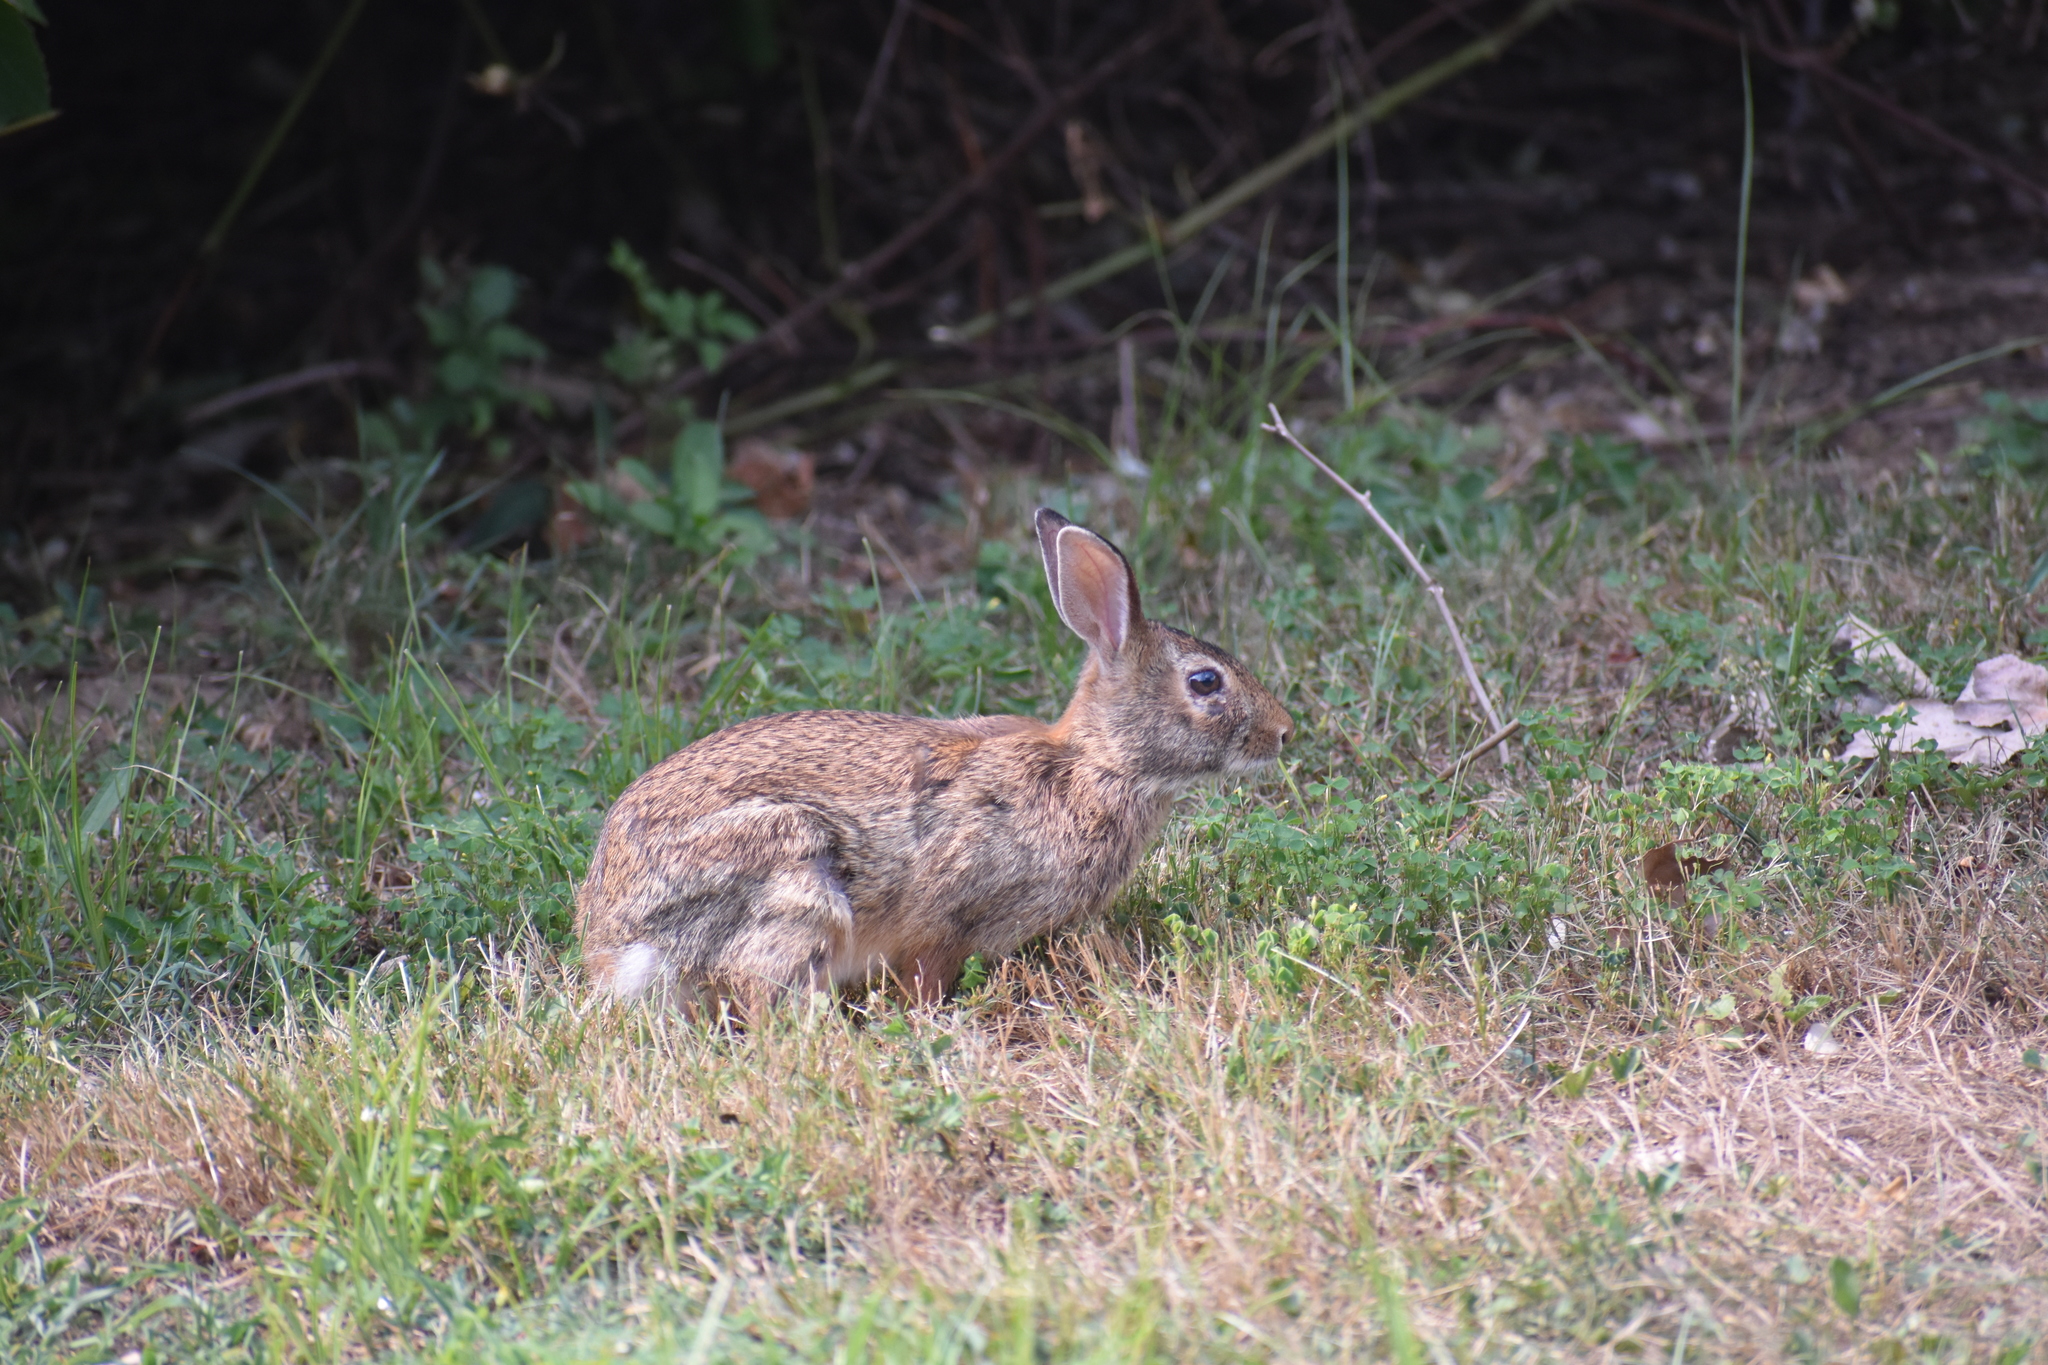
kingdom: Animalia
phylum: Chordata
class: Mammalia
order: Lagomorpha
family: Leporidae
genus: Sylvilagus
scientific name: Sylvilagus floridanus
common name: Eastern cottontail
